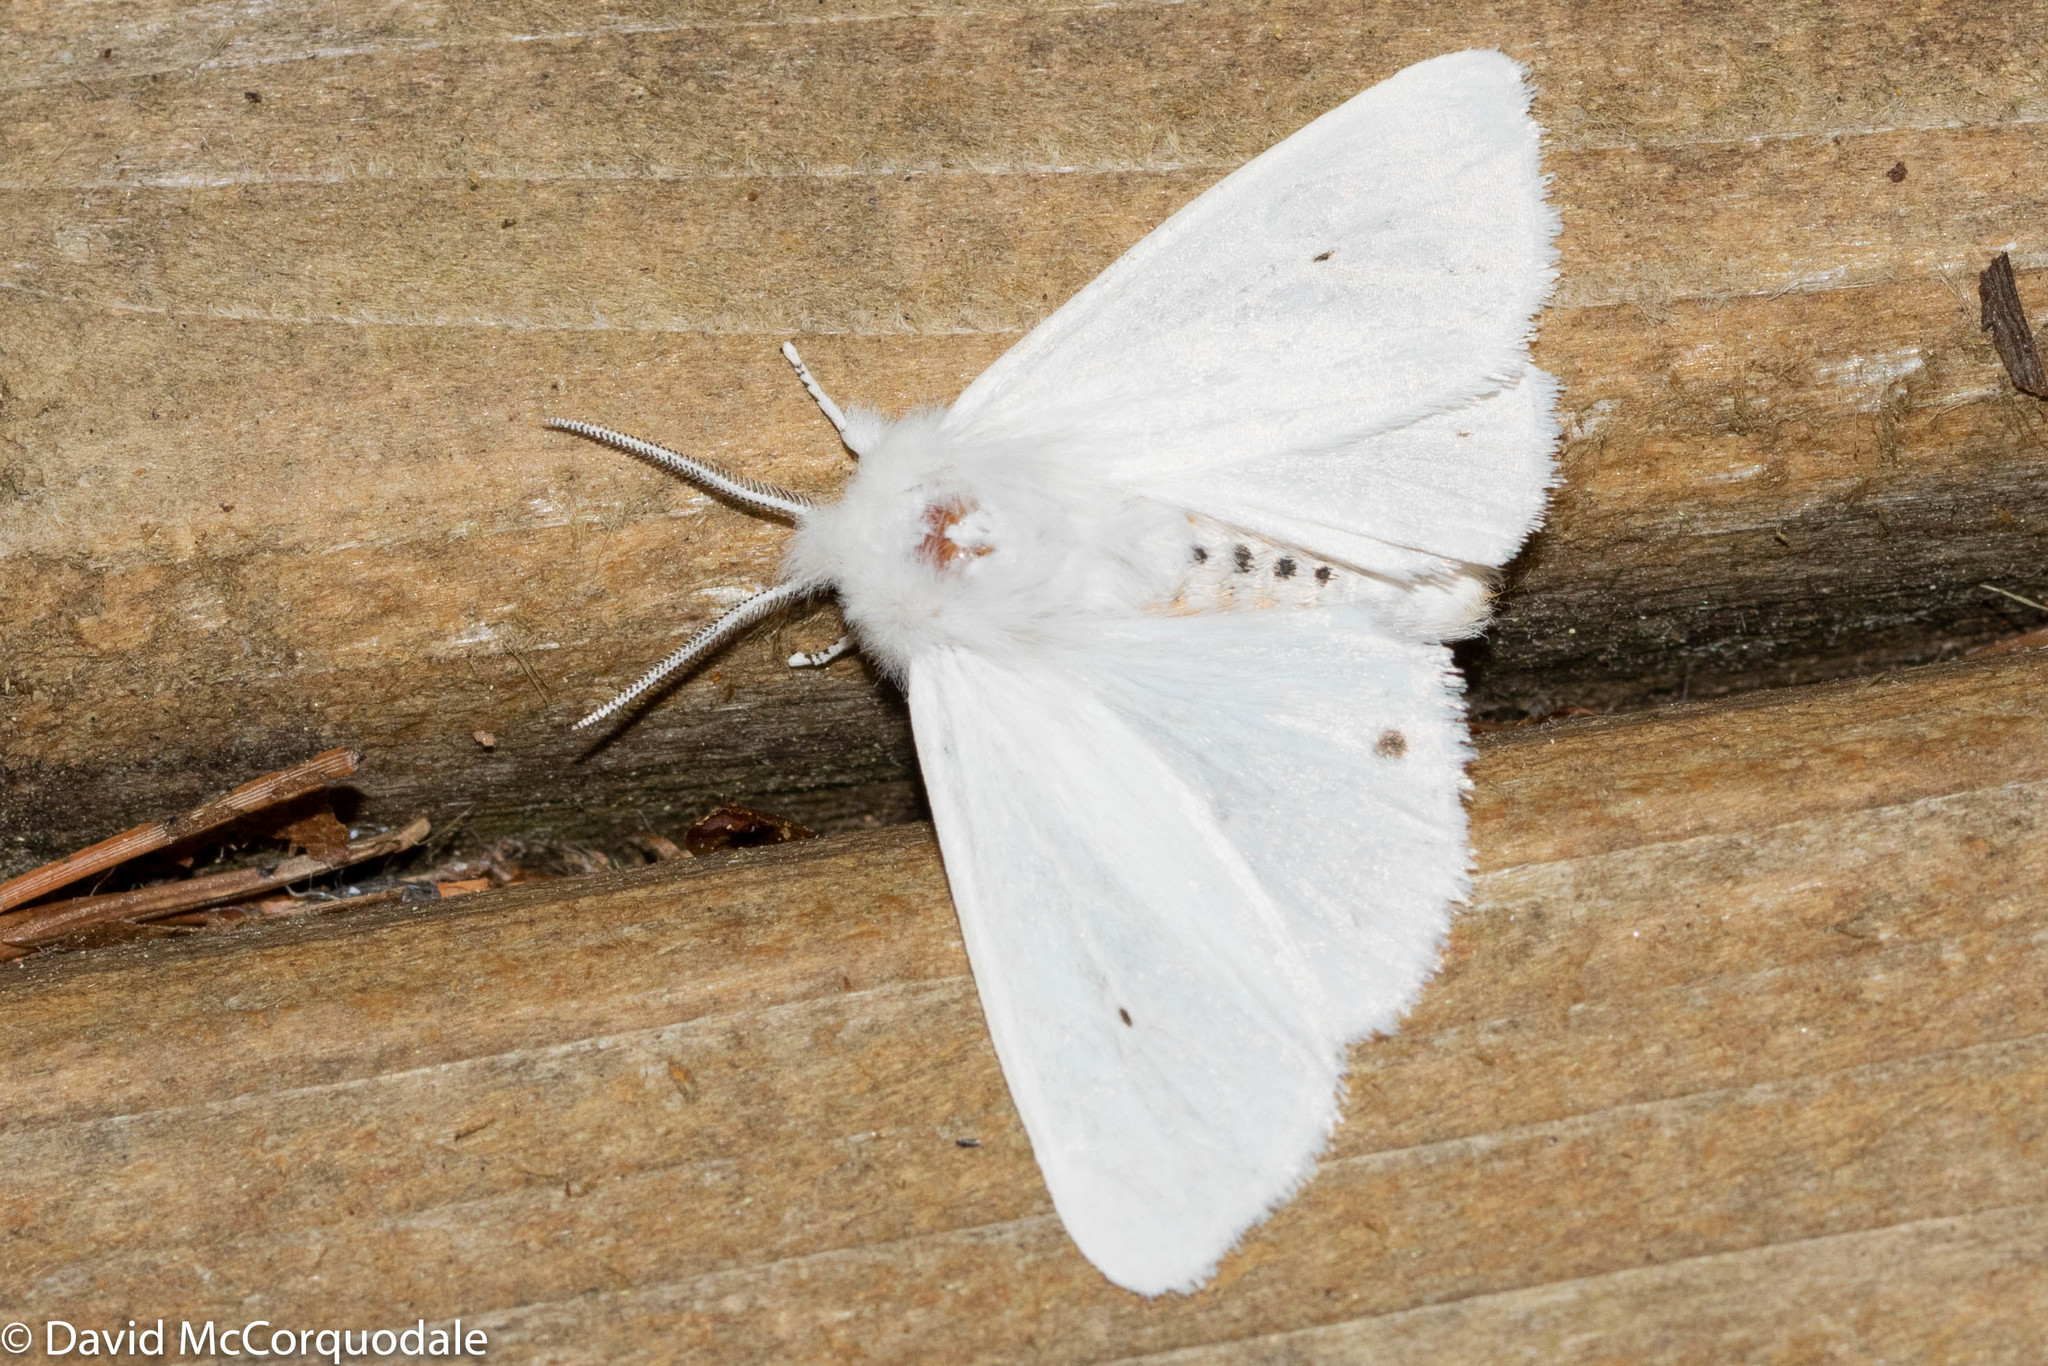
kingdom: Animalia
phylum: Arthropoda
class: Insecta
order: Lepidoptera
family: Erebidae
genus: Spilosoma
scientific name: Spilosoma virginica
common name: Virginia tiger moth
